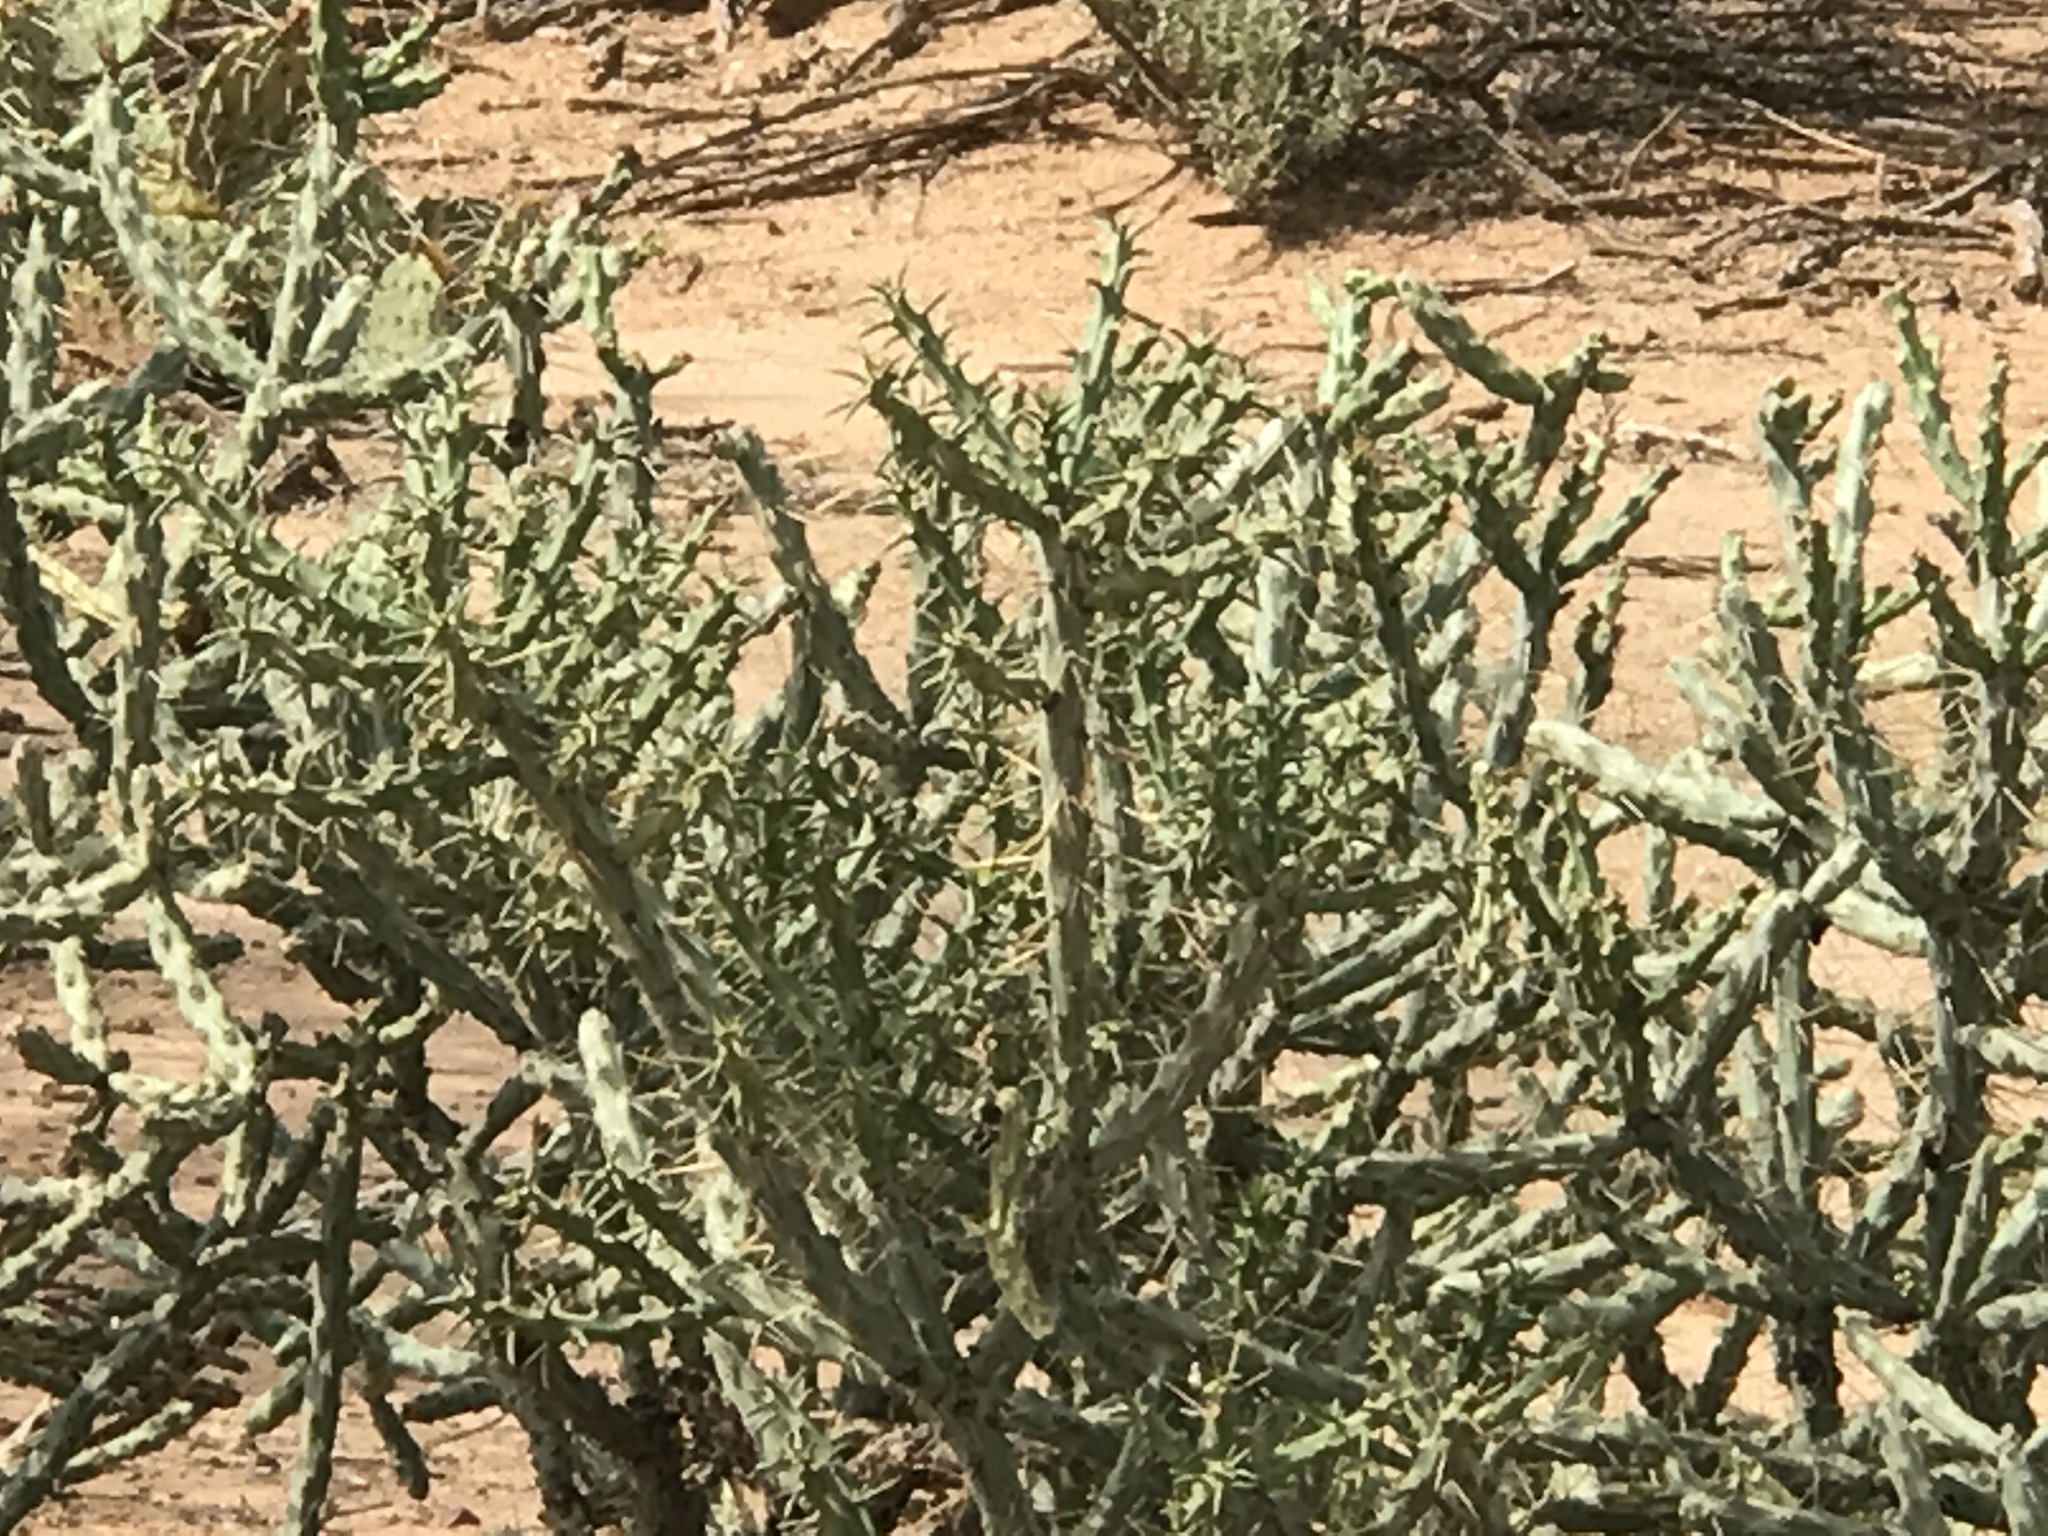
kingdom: Plantae
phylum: Tracheophyta
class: Magnoliopsida
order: Caryophyllales
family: Cactaceae
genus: Cylindropuntia
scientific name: Cylindropuntia arbuscula
